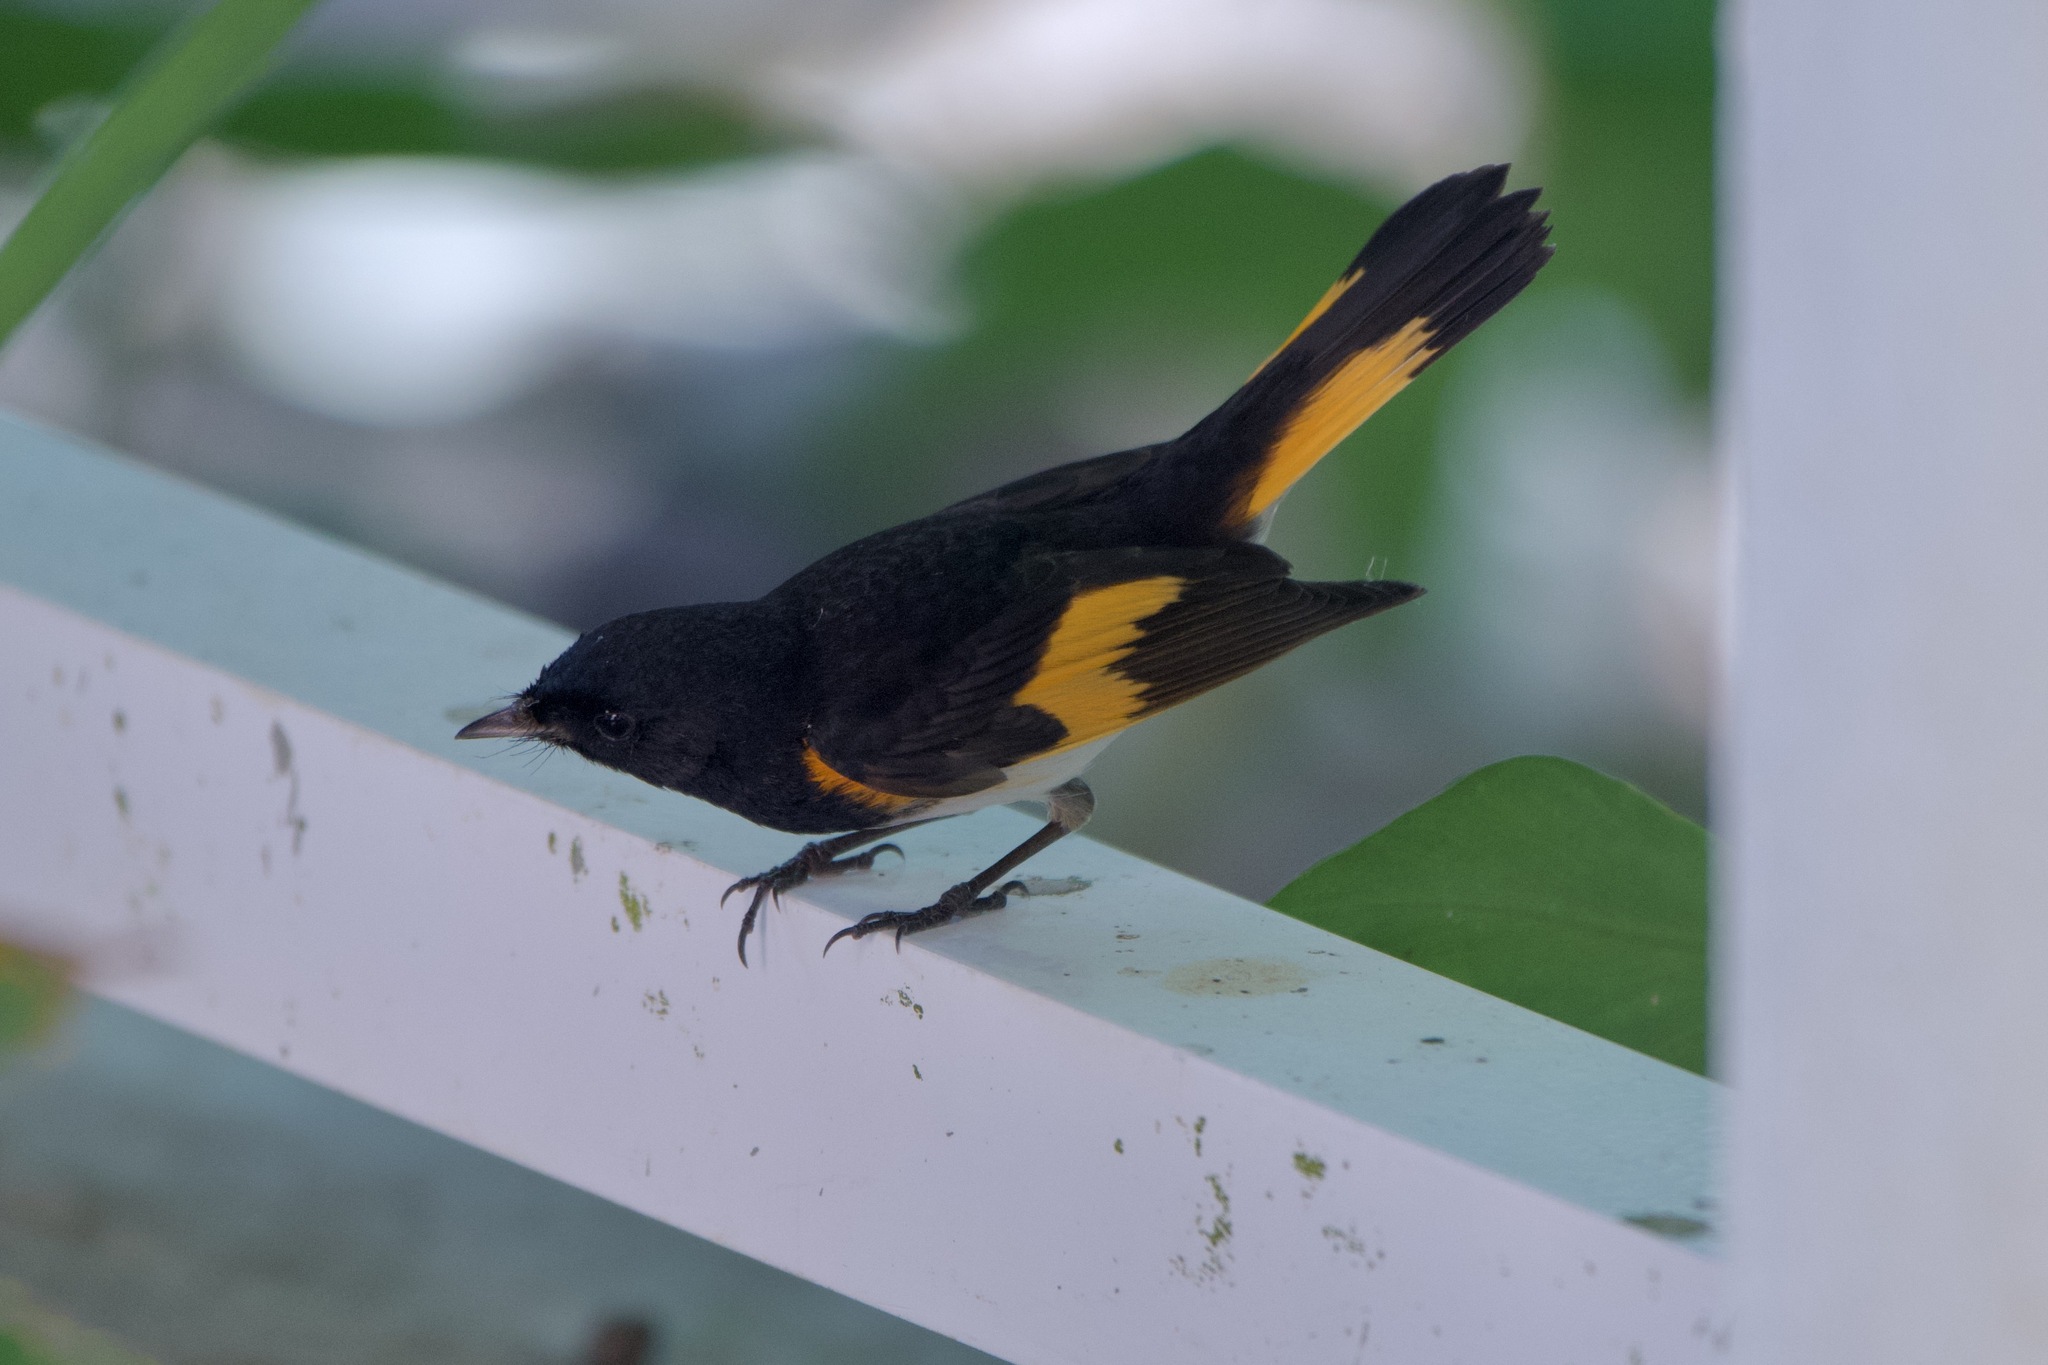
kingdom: Animalia
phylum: Chordata
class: Aves
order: Passeriformes
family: Parulidae
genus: Setophaga
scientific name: Setophaga ruticilla
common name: American redstart
